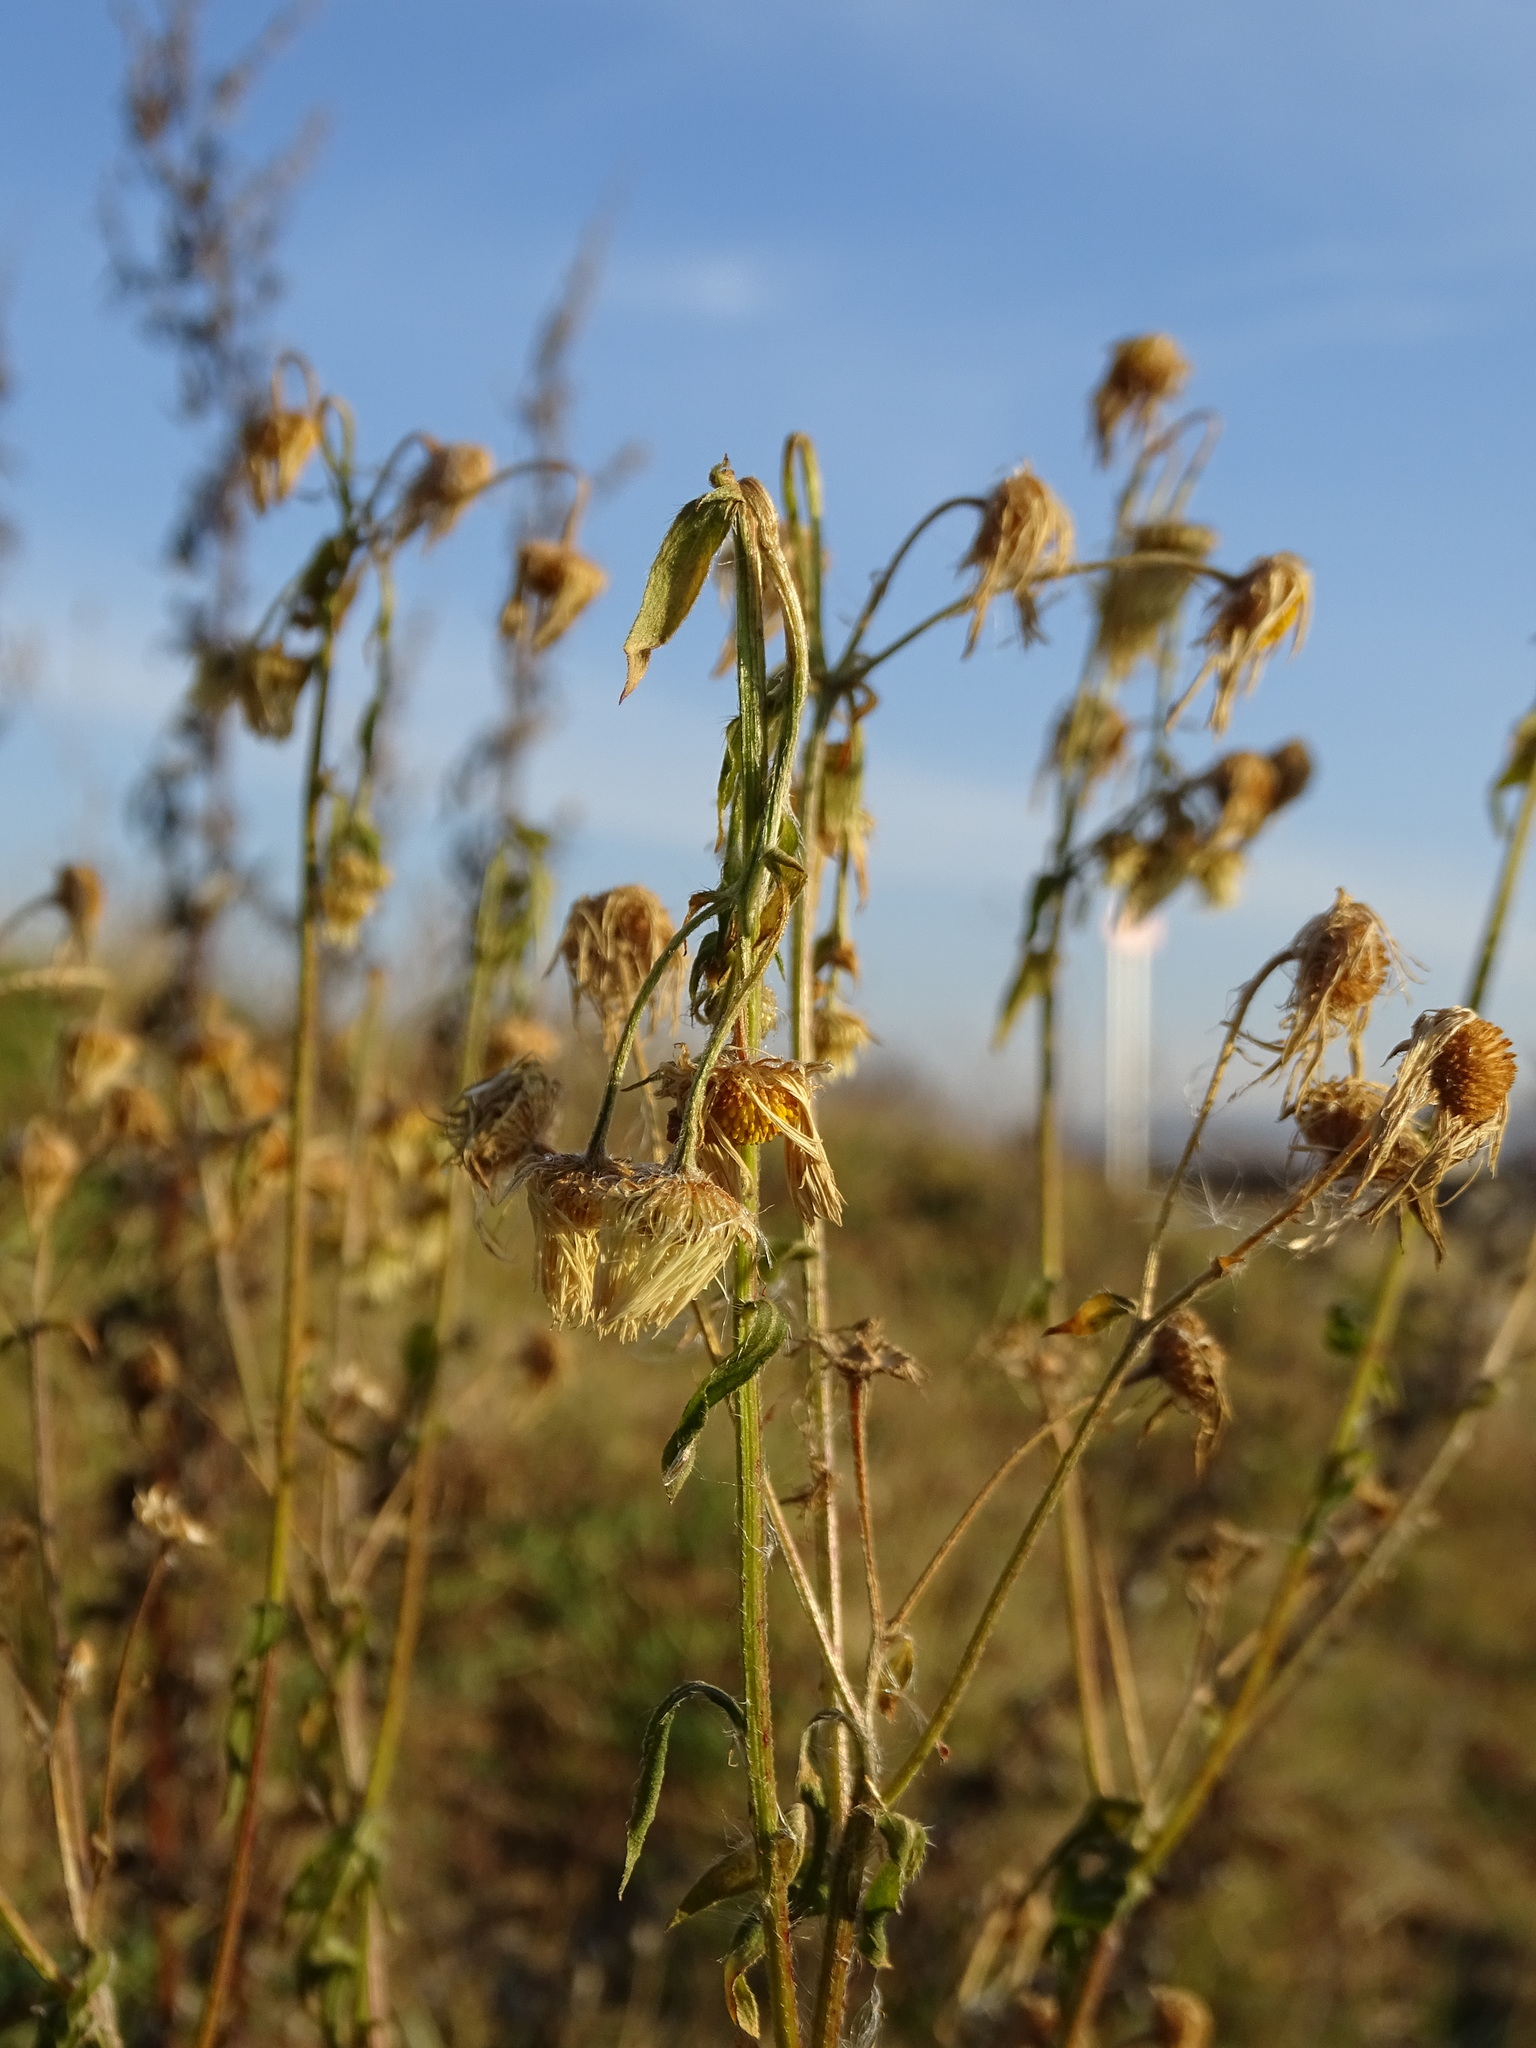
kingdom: Plantae
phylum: Tracheophyta
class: Magnoliopsida
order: Asterales
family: Asteraceae
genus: Erigeron
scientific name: Erigeron annuus
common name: Tall fleabane
